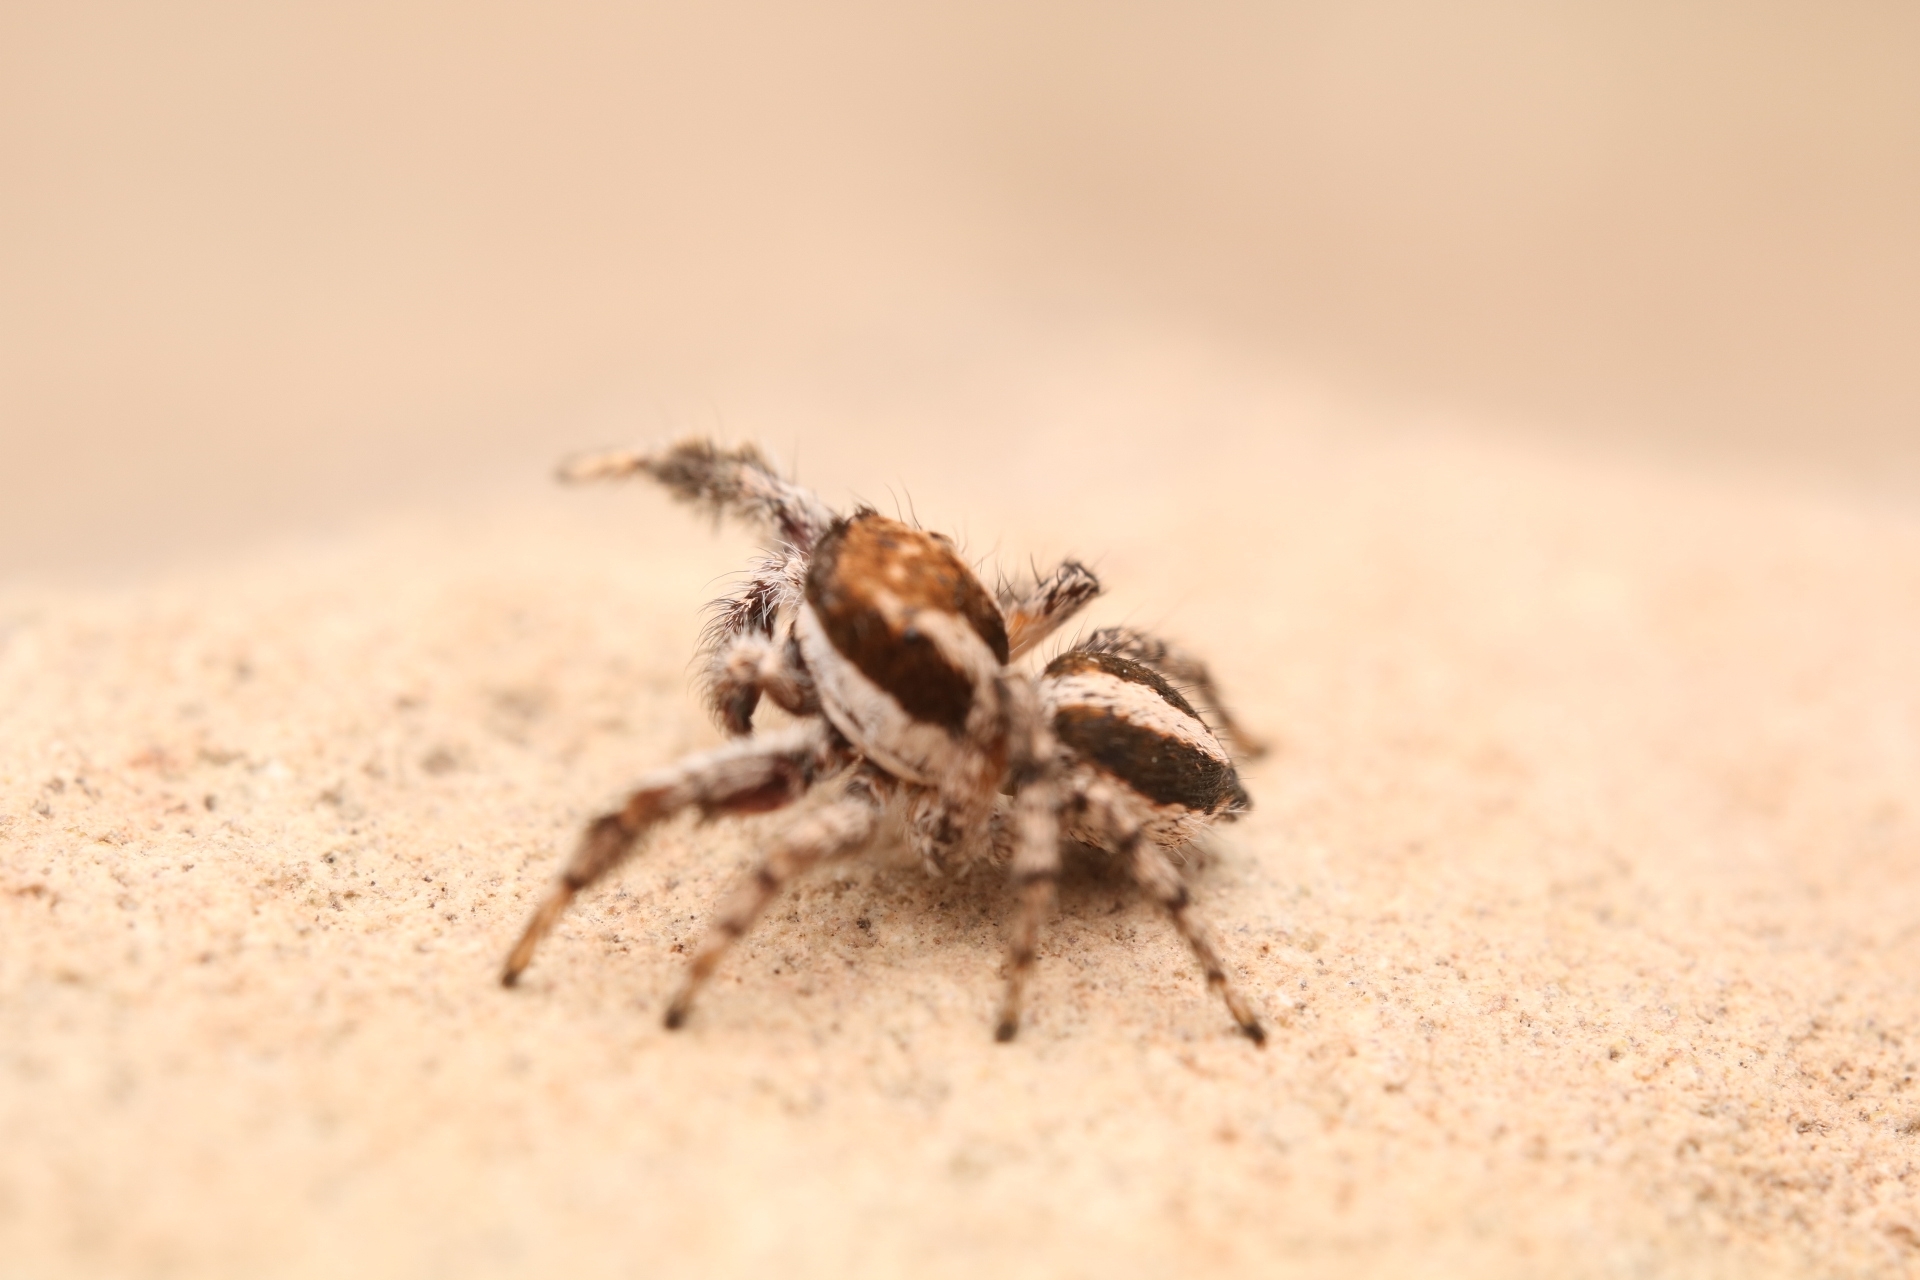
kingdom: Animalia
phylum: Arthropoda
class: Arachnida
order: Araneae
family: Salticidae
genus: Habronattus
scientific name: Habronattus cognatus
